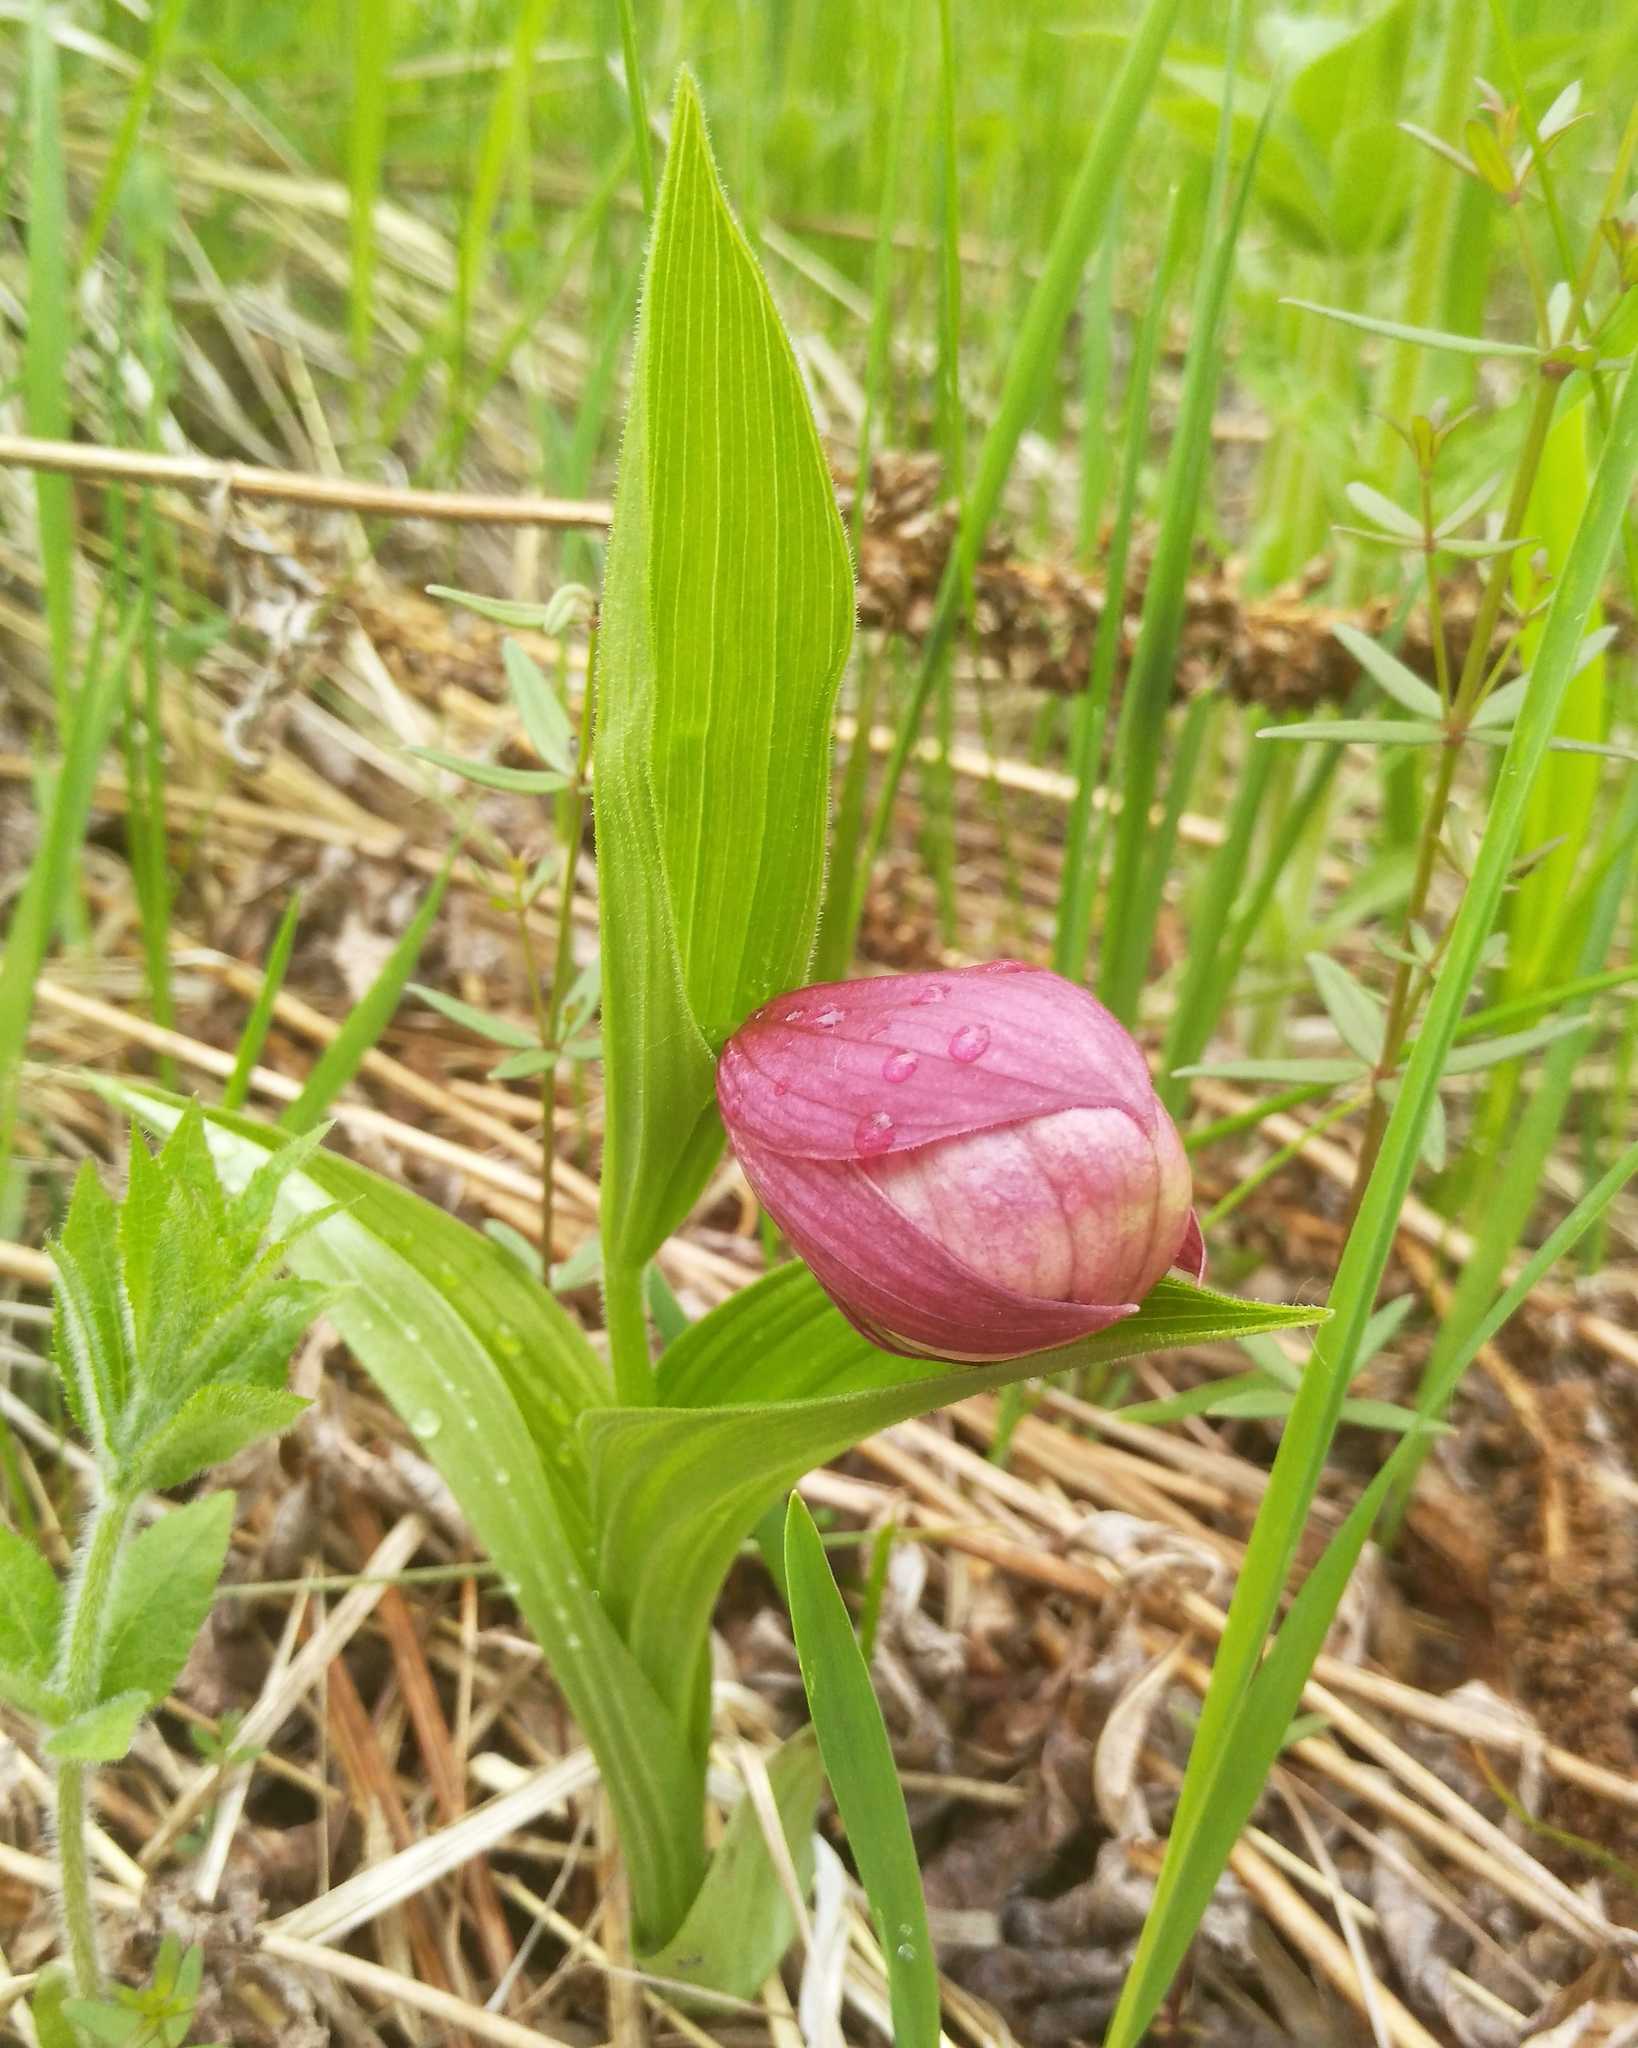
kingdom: Plantae
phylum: Tracheophyta
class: Liliopsida
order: Asparagales
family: Orchidaceae
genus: Cypripedium
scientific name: Cypripedium macranthos
